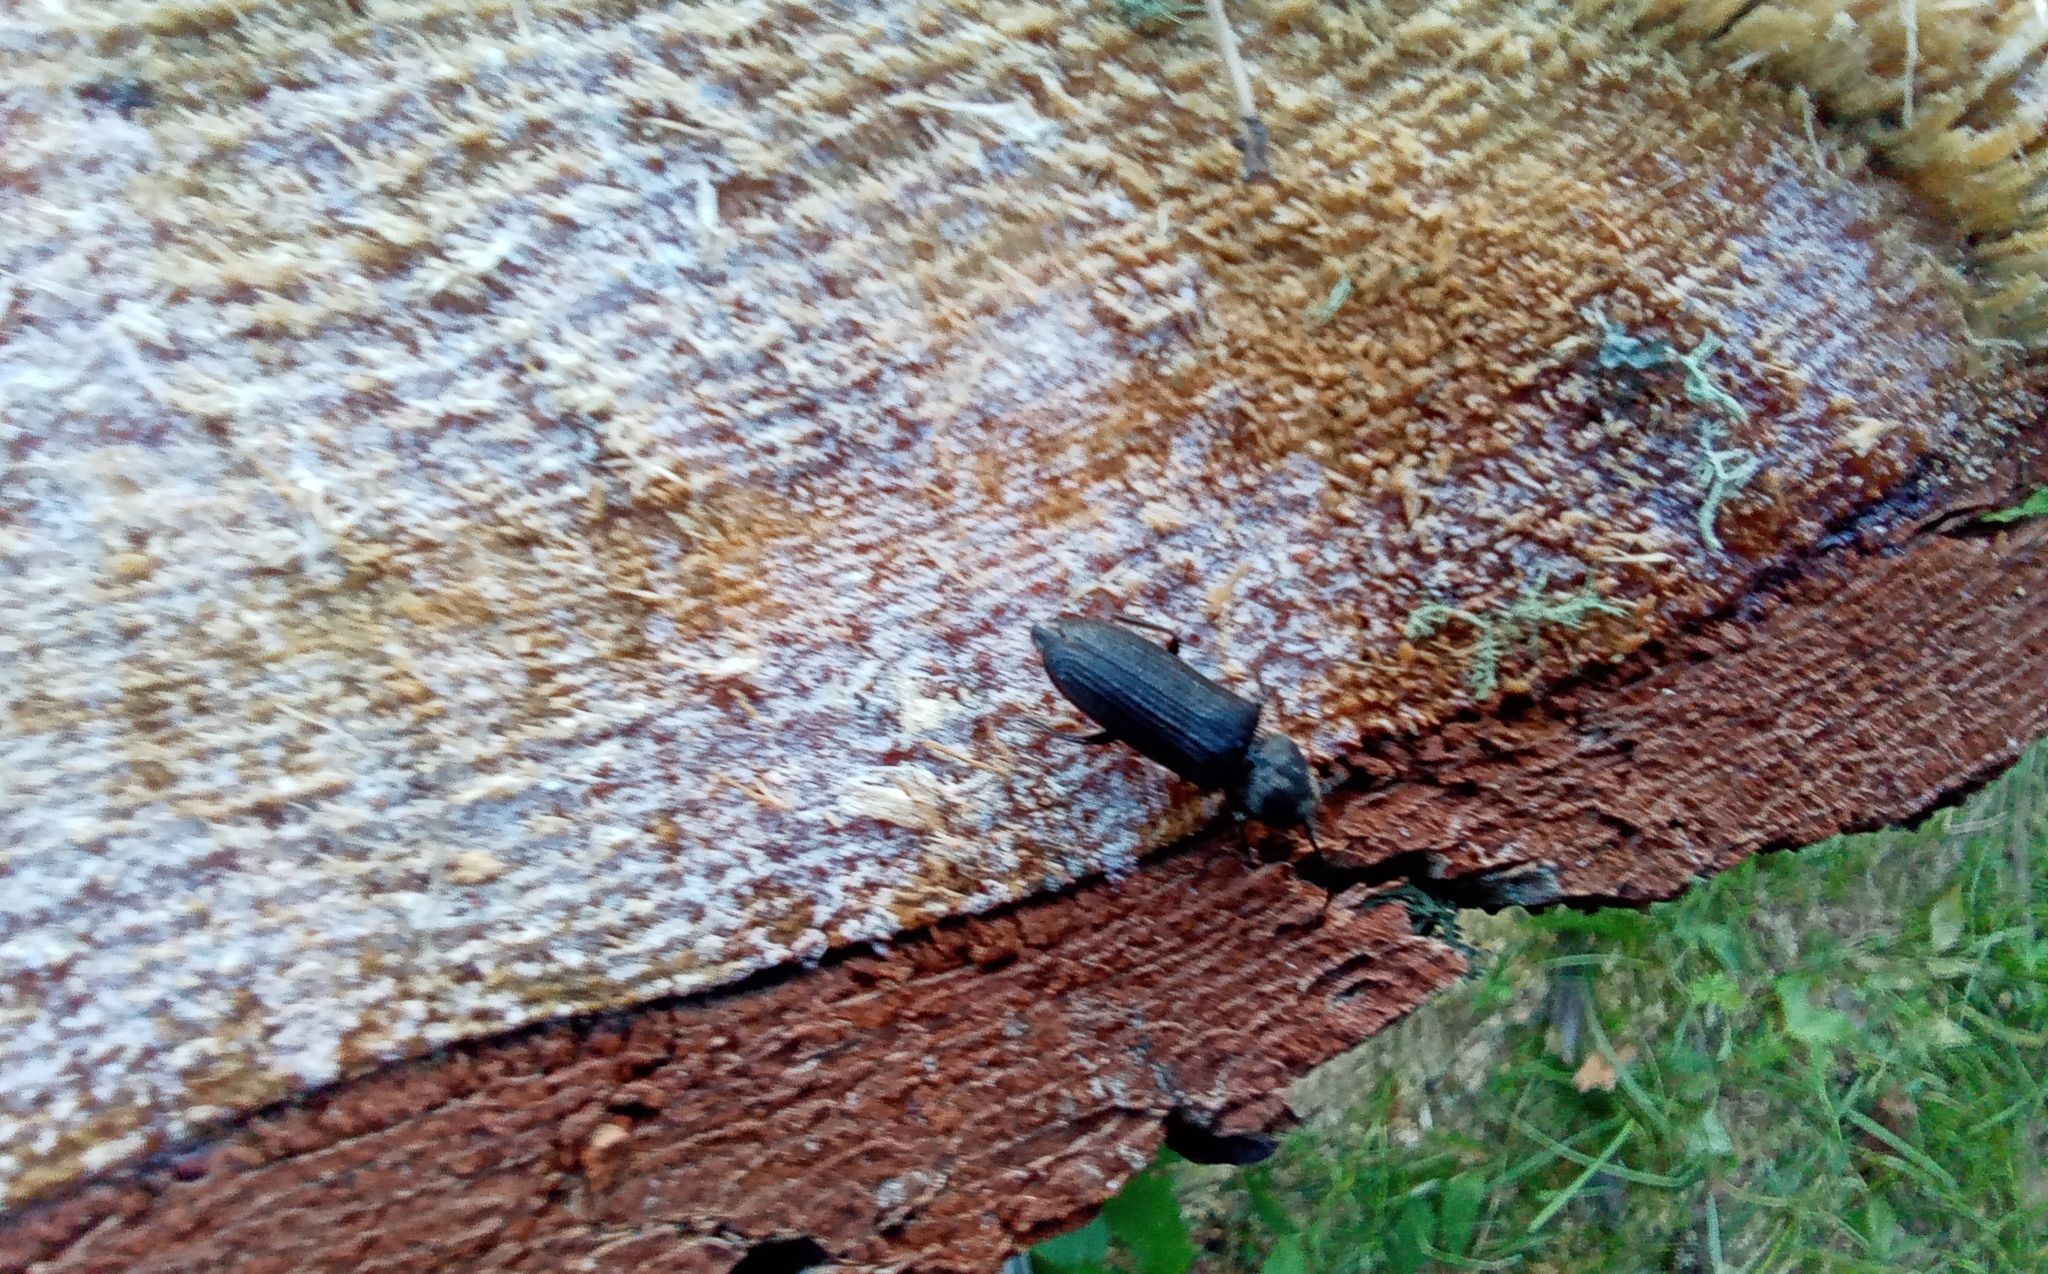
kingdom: Animalia
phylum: Arthropoda
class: Insecta
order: Coleoptera
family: Cerambycidae
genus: Asemum
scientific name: Asemum striatum
